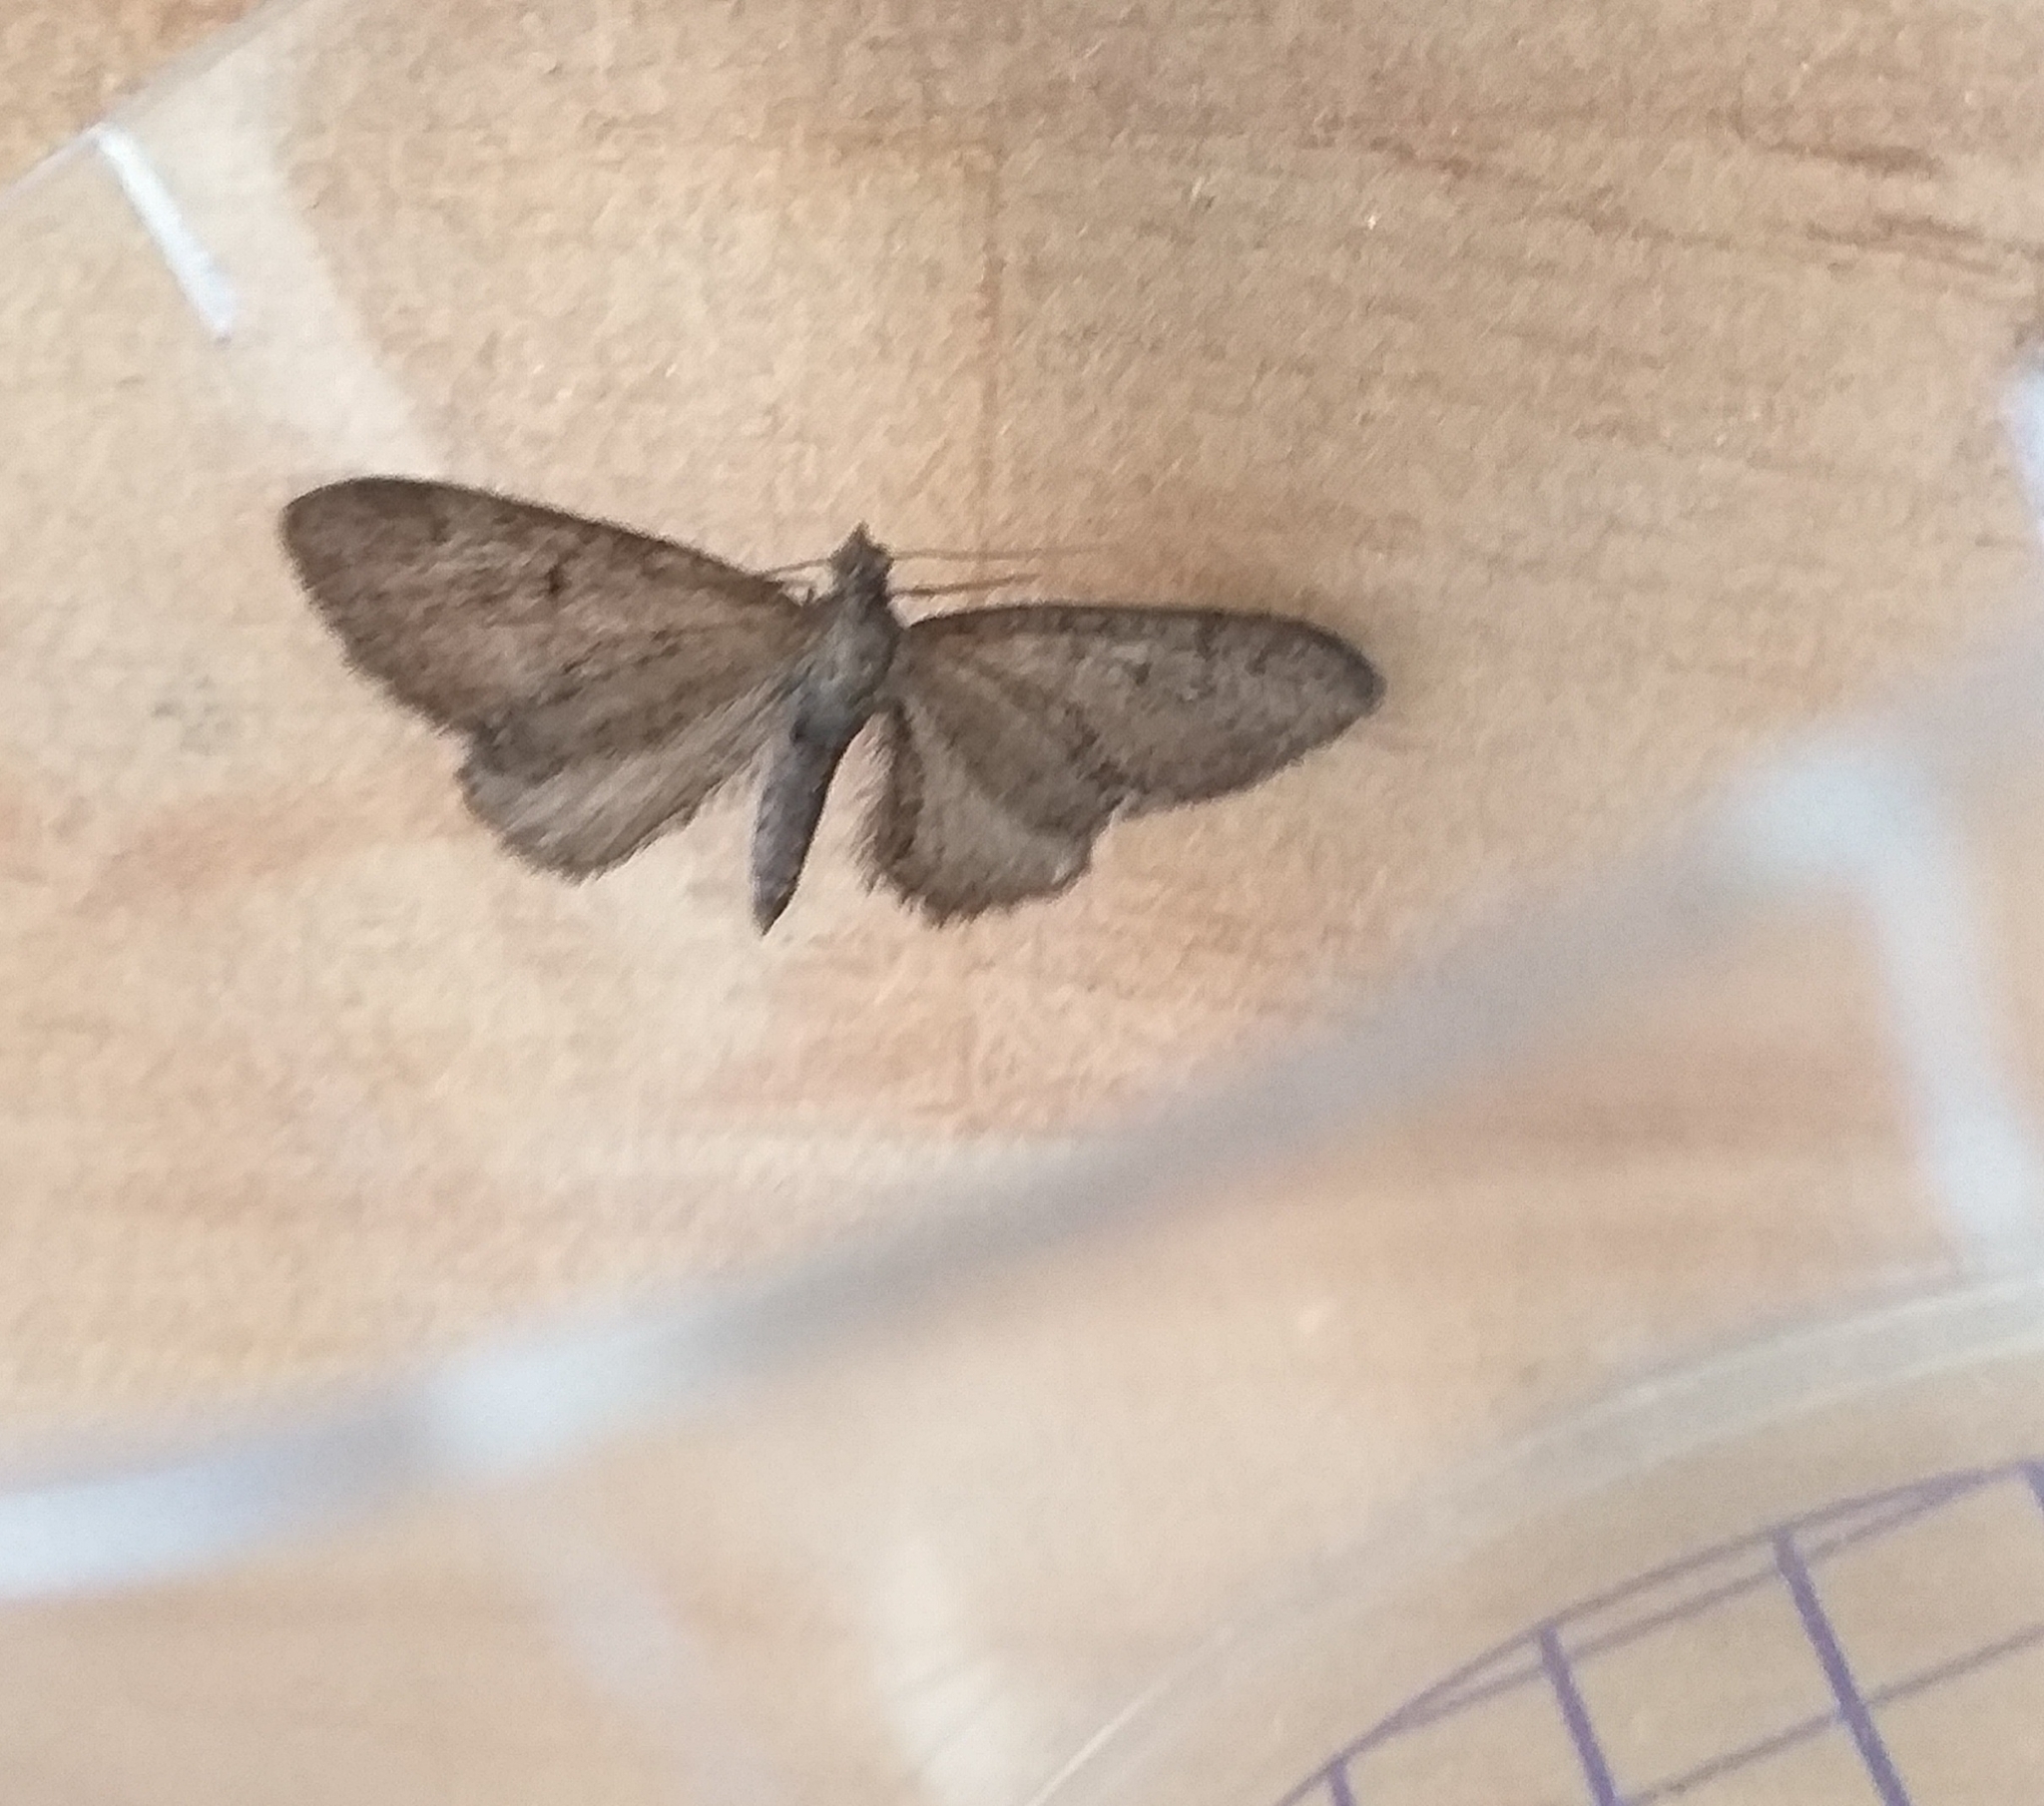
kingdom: Animalia
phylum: Arthropoda
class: Insecta
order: Lepidoptera
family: Geometridae
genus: Eupithecia
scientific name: Eupithecia vulgata
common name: Common pug
